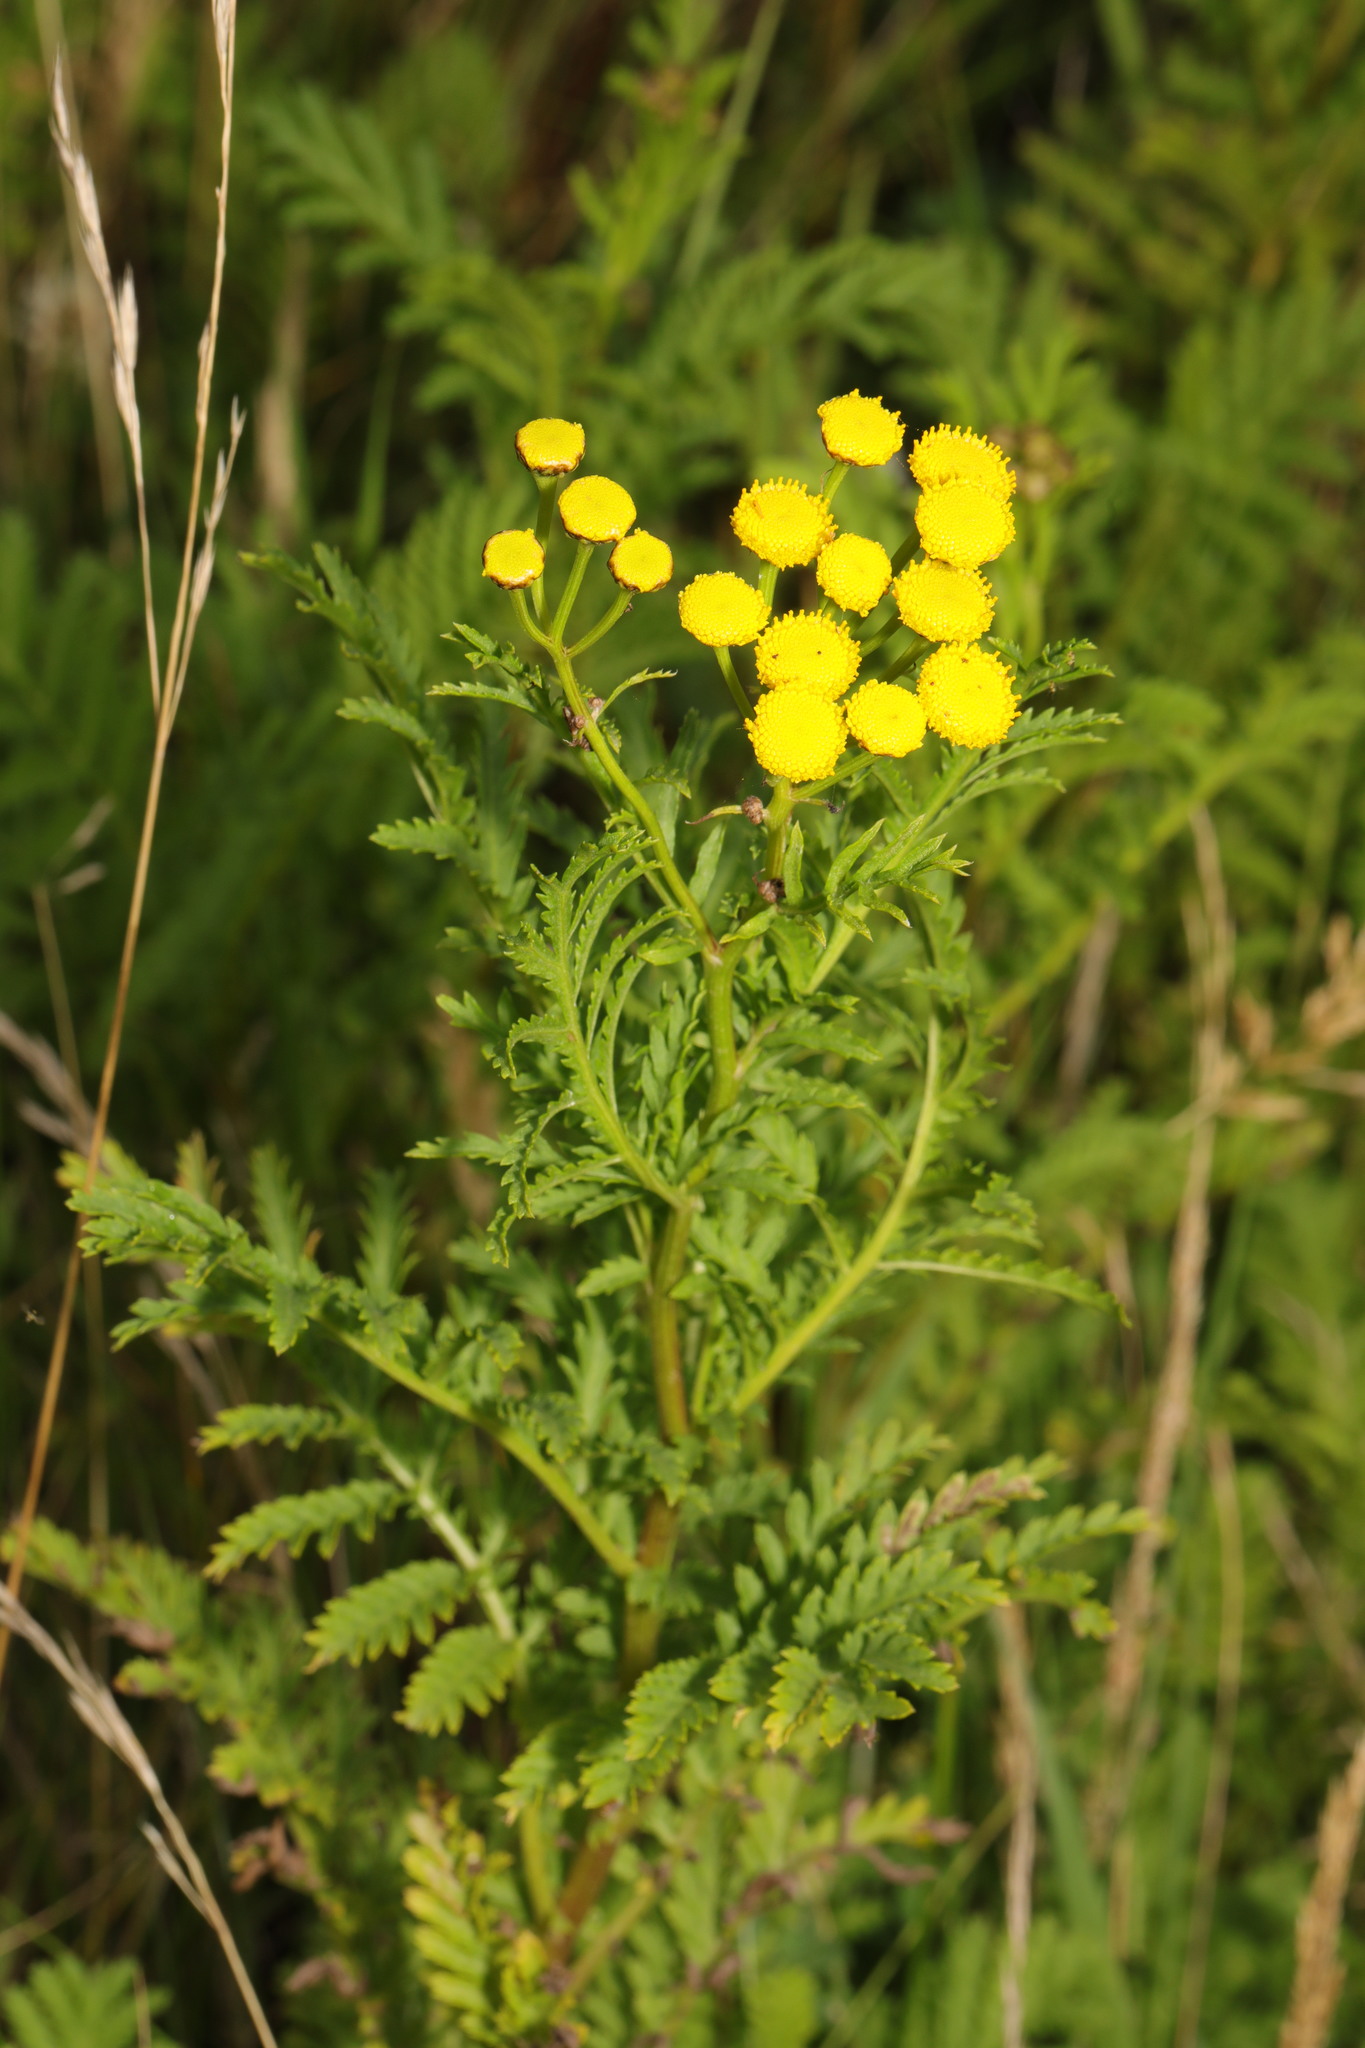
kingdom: Plantae
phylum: Tracheophyta
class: Magnoliopsida
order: Asterales
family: Asteraceae
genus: Tanacetum
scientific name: Tanacetum vulgare
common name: Common tansy
